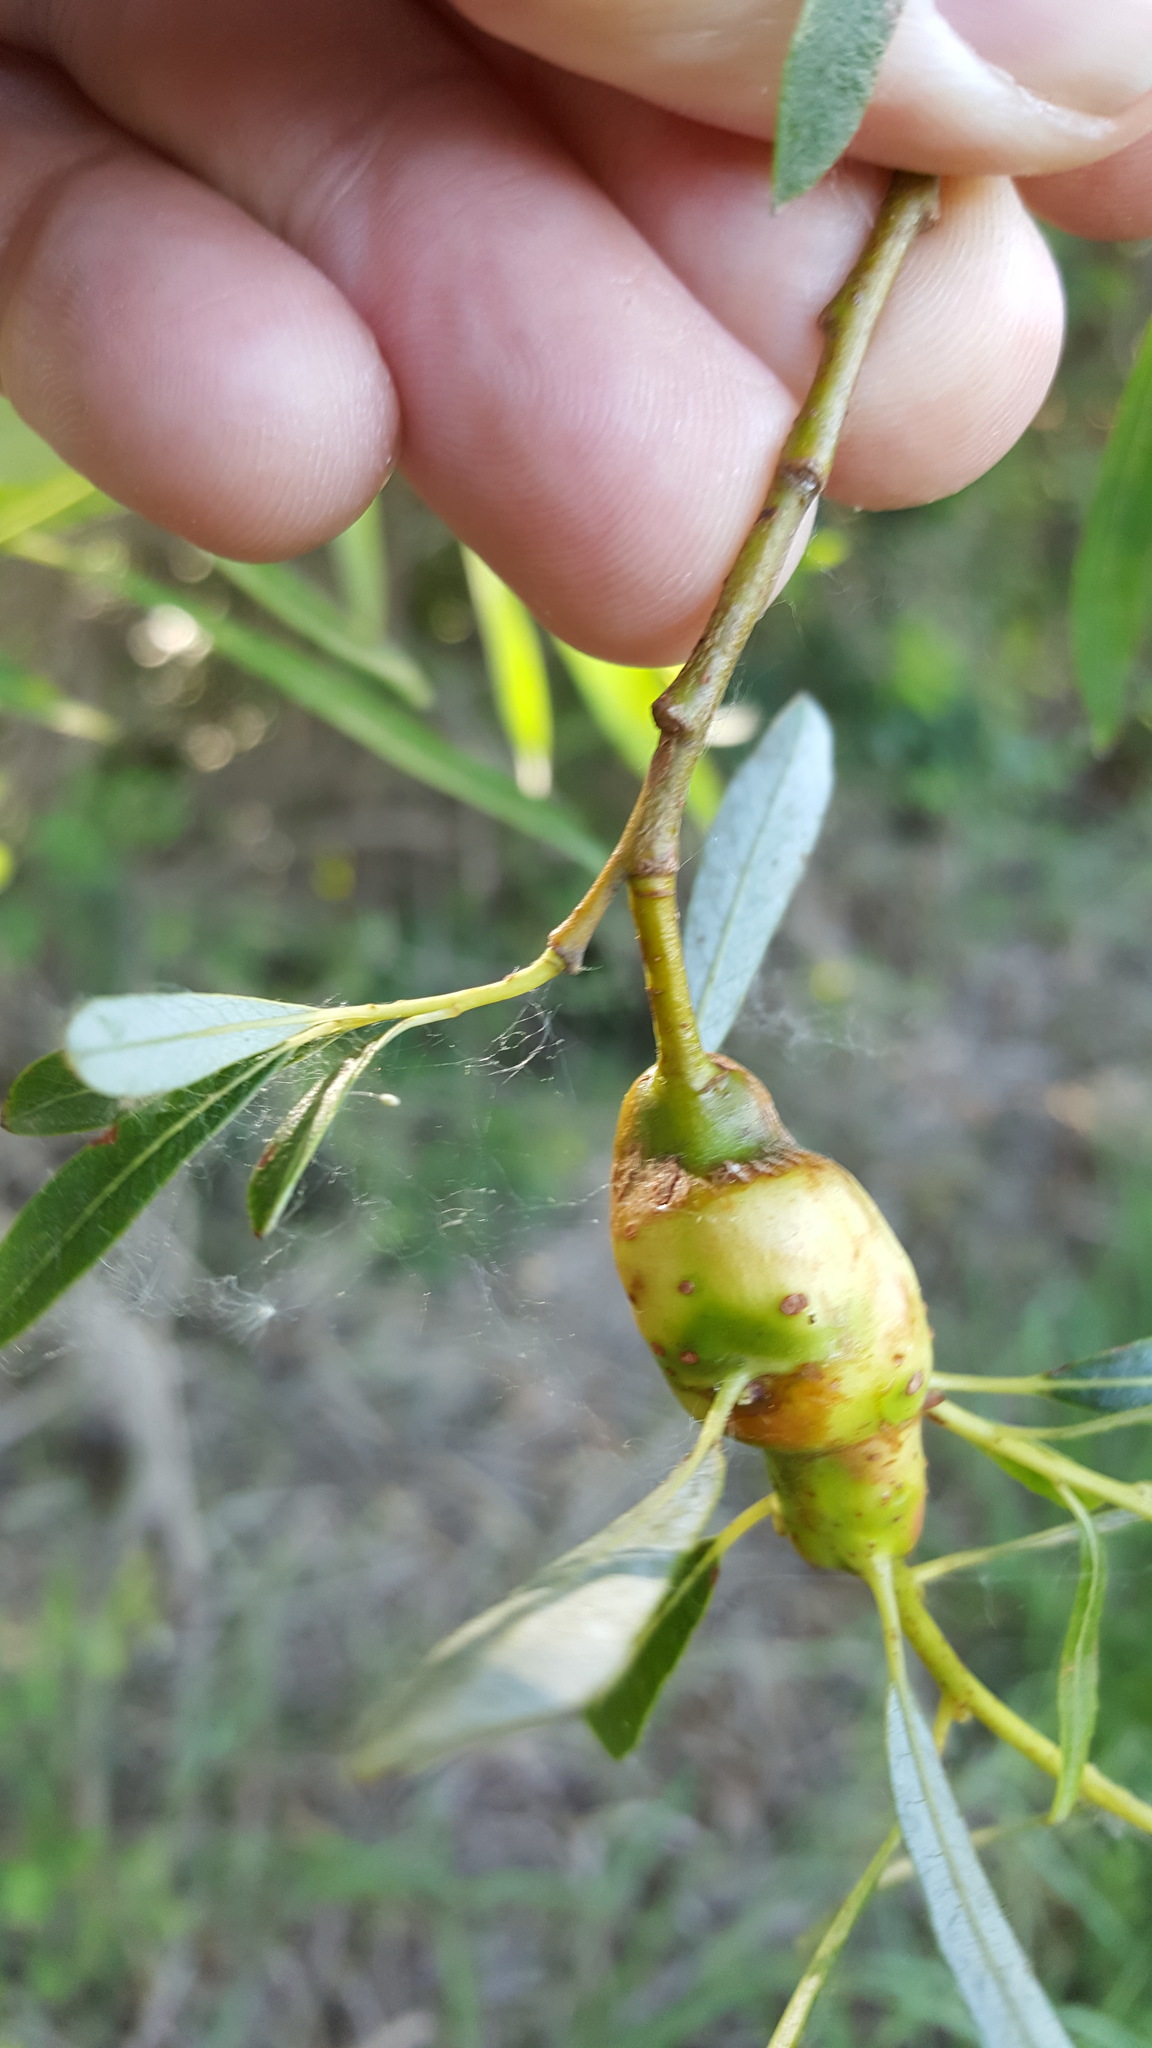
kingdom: Animalia
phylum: Arthropoda
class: Insecta
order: Diptera
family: Cecidomyiidae
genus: Rabdophaga
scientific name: Rabdophaga salicisbatatas
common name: Potato gall midge
